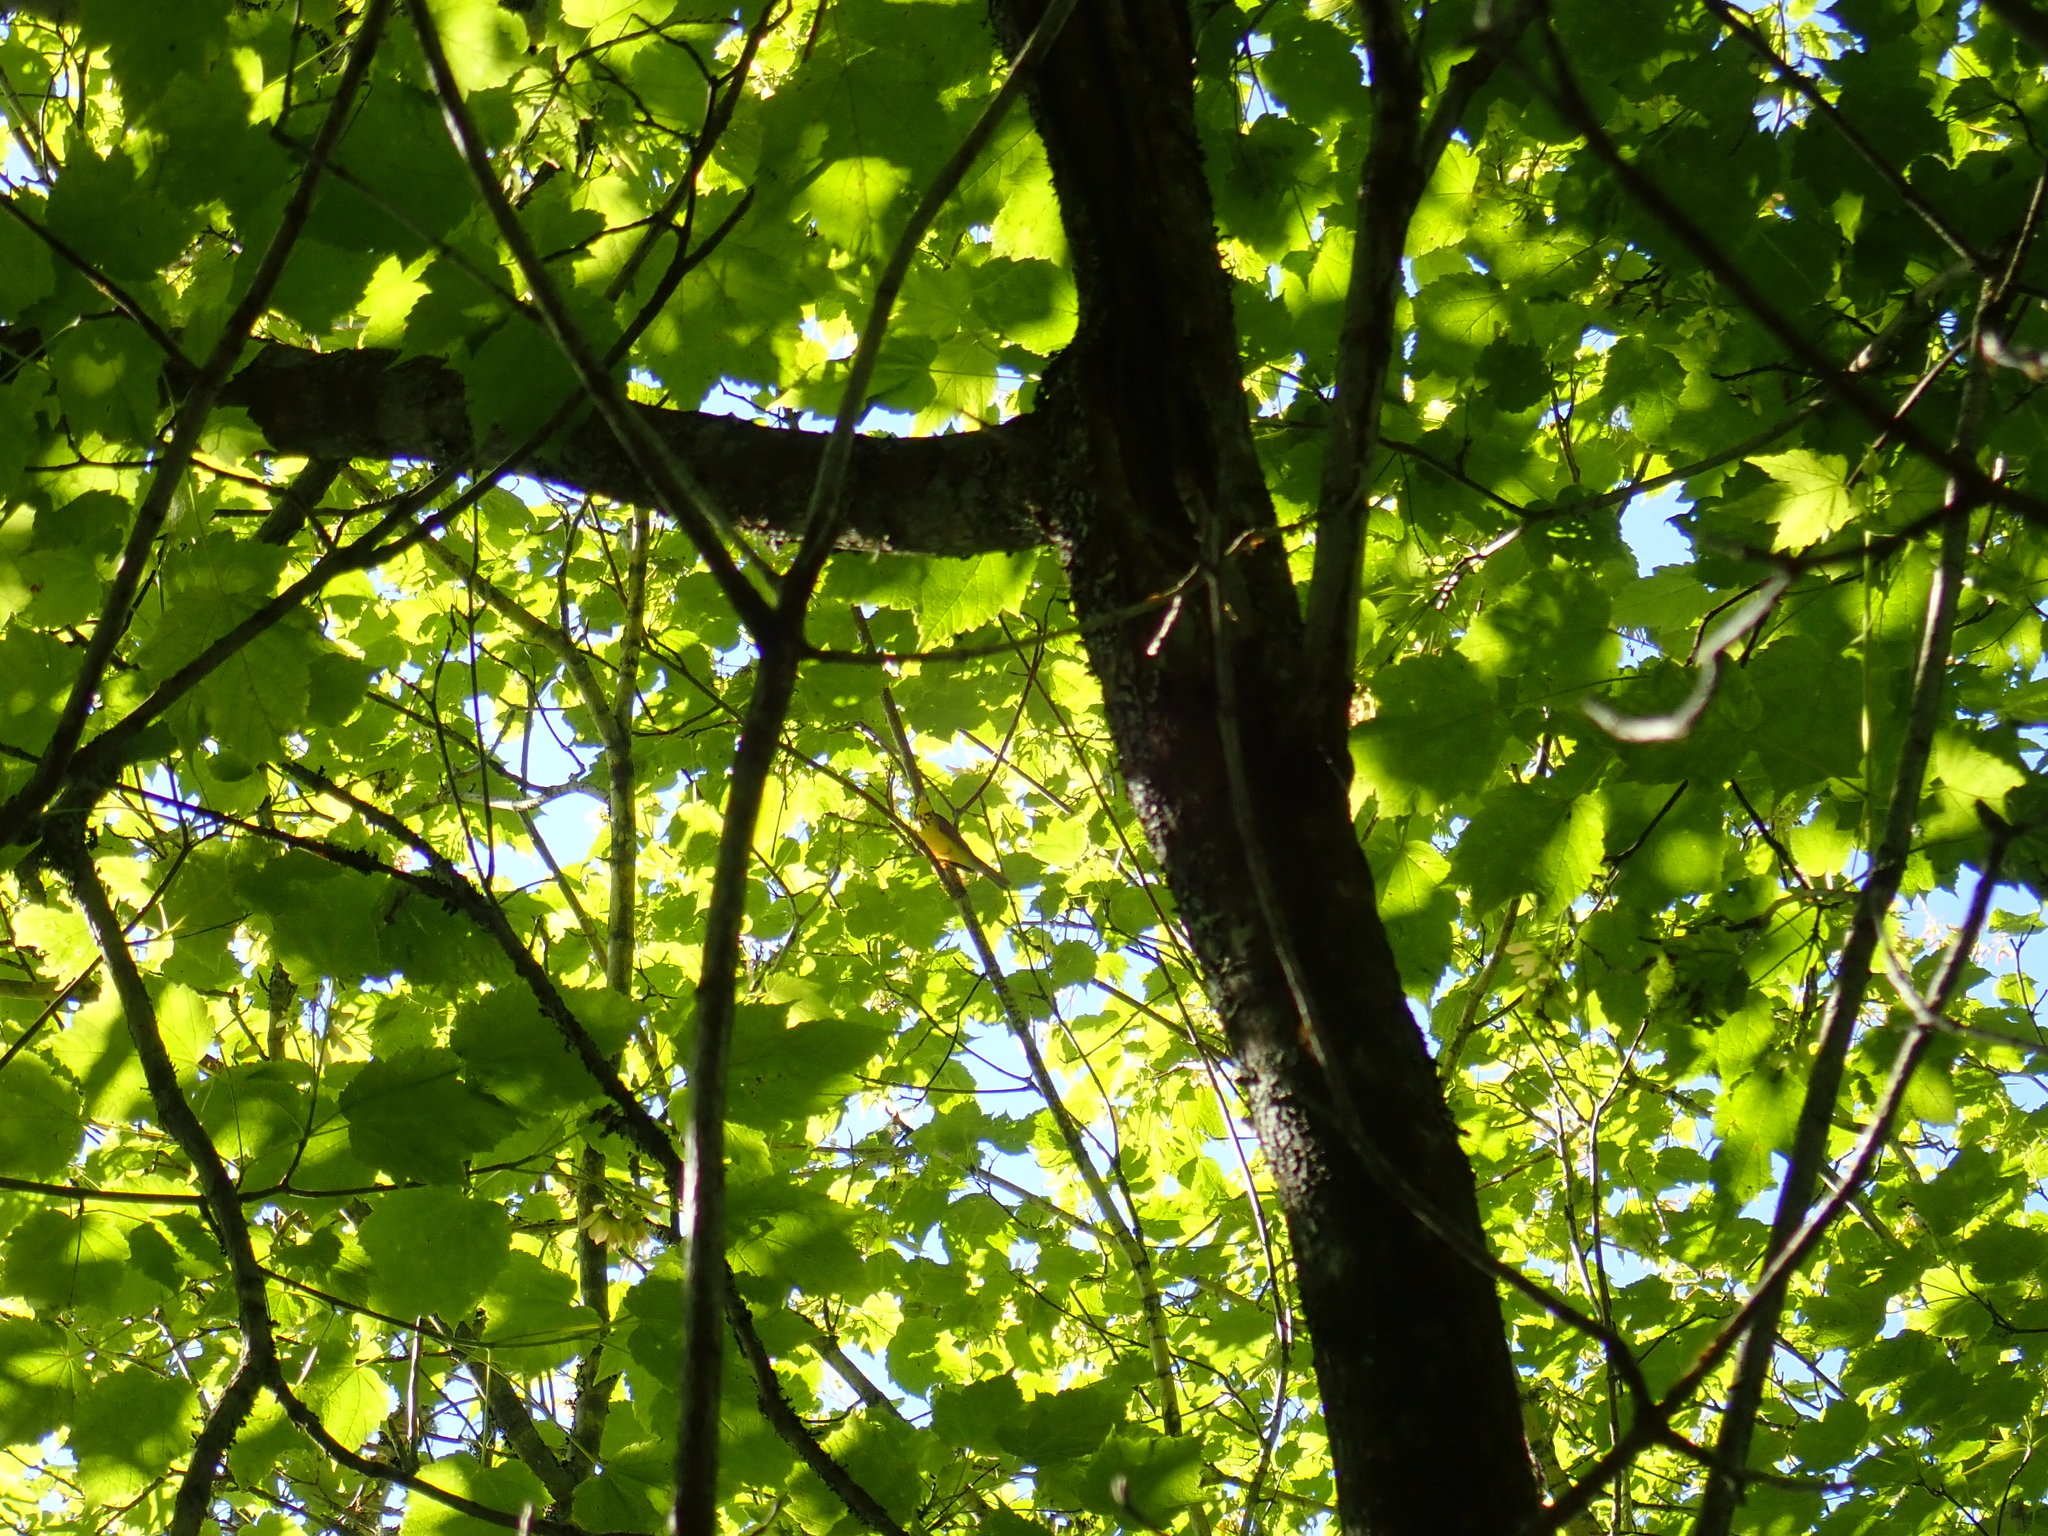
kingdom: Animalia
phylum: Chordata
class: Aves
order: Passeriformes
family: Parulidae
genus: Cardellina
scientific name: Cardellina canadensis
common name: Canada warbler
